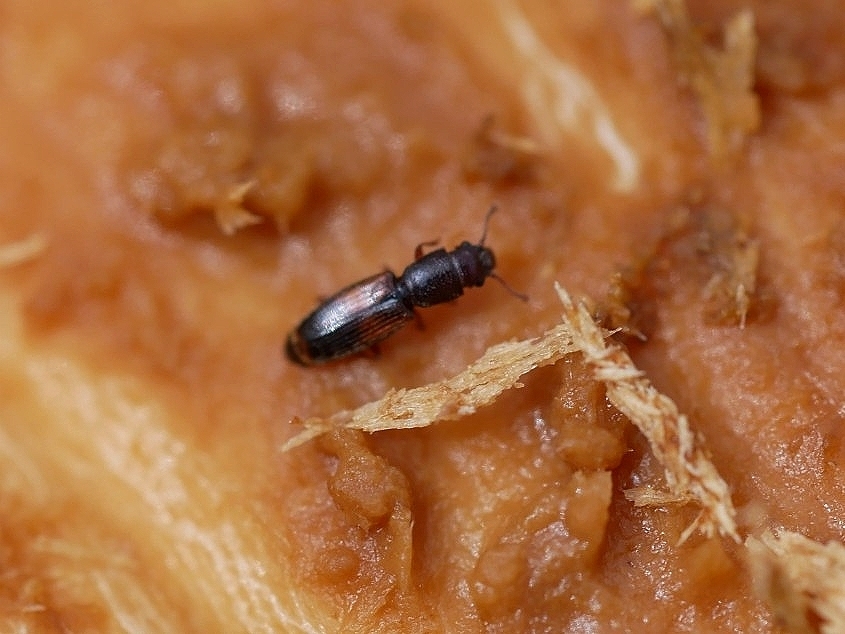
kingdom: Animalia
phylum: Arthropoda
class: Insecta
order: Coleoptera
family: Monotomidae
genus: Hesperobaenus
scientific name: Hesperobaenus abbreviatus
